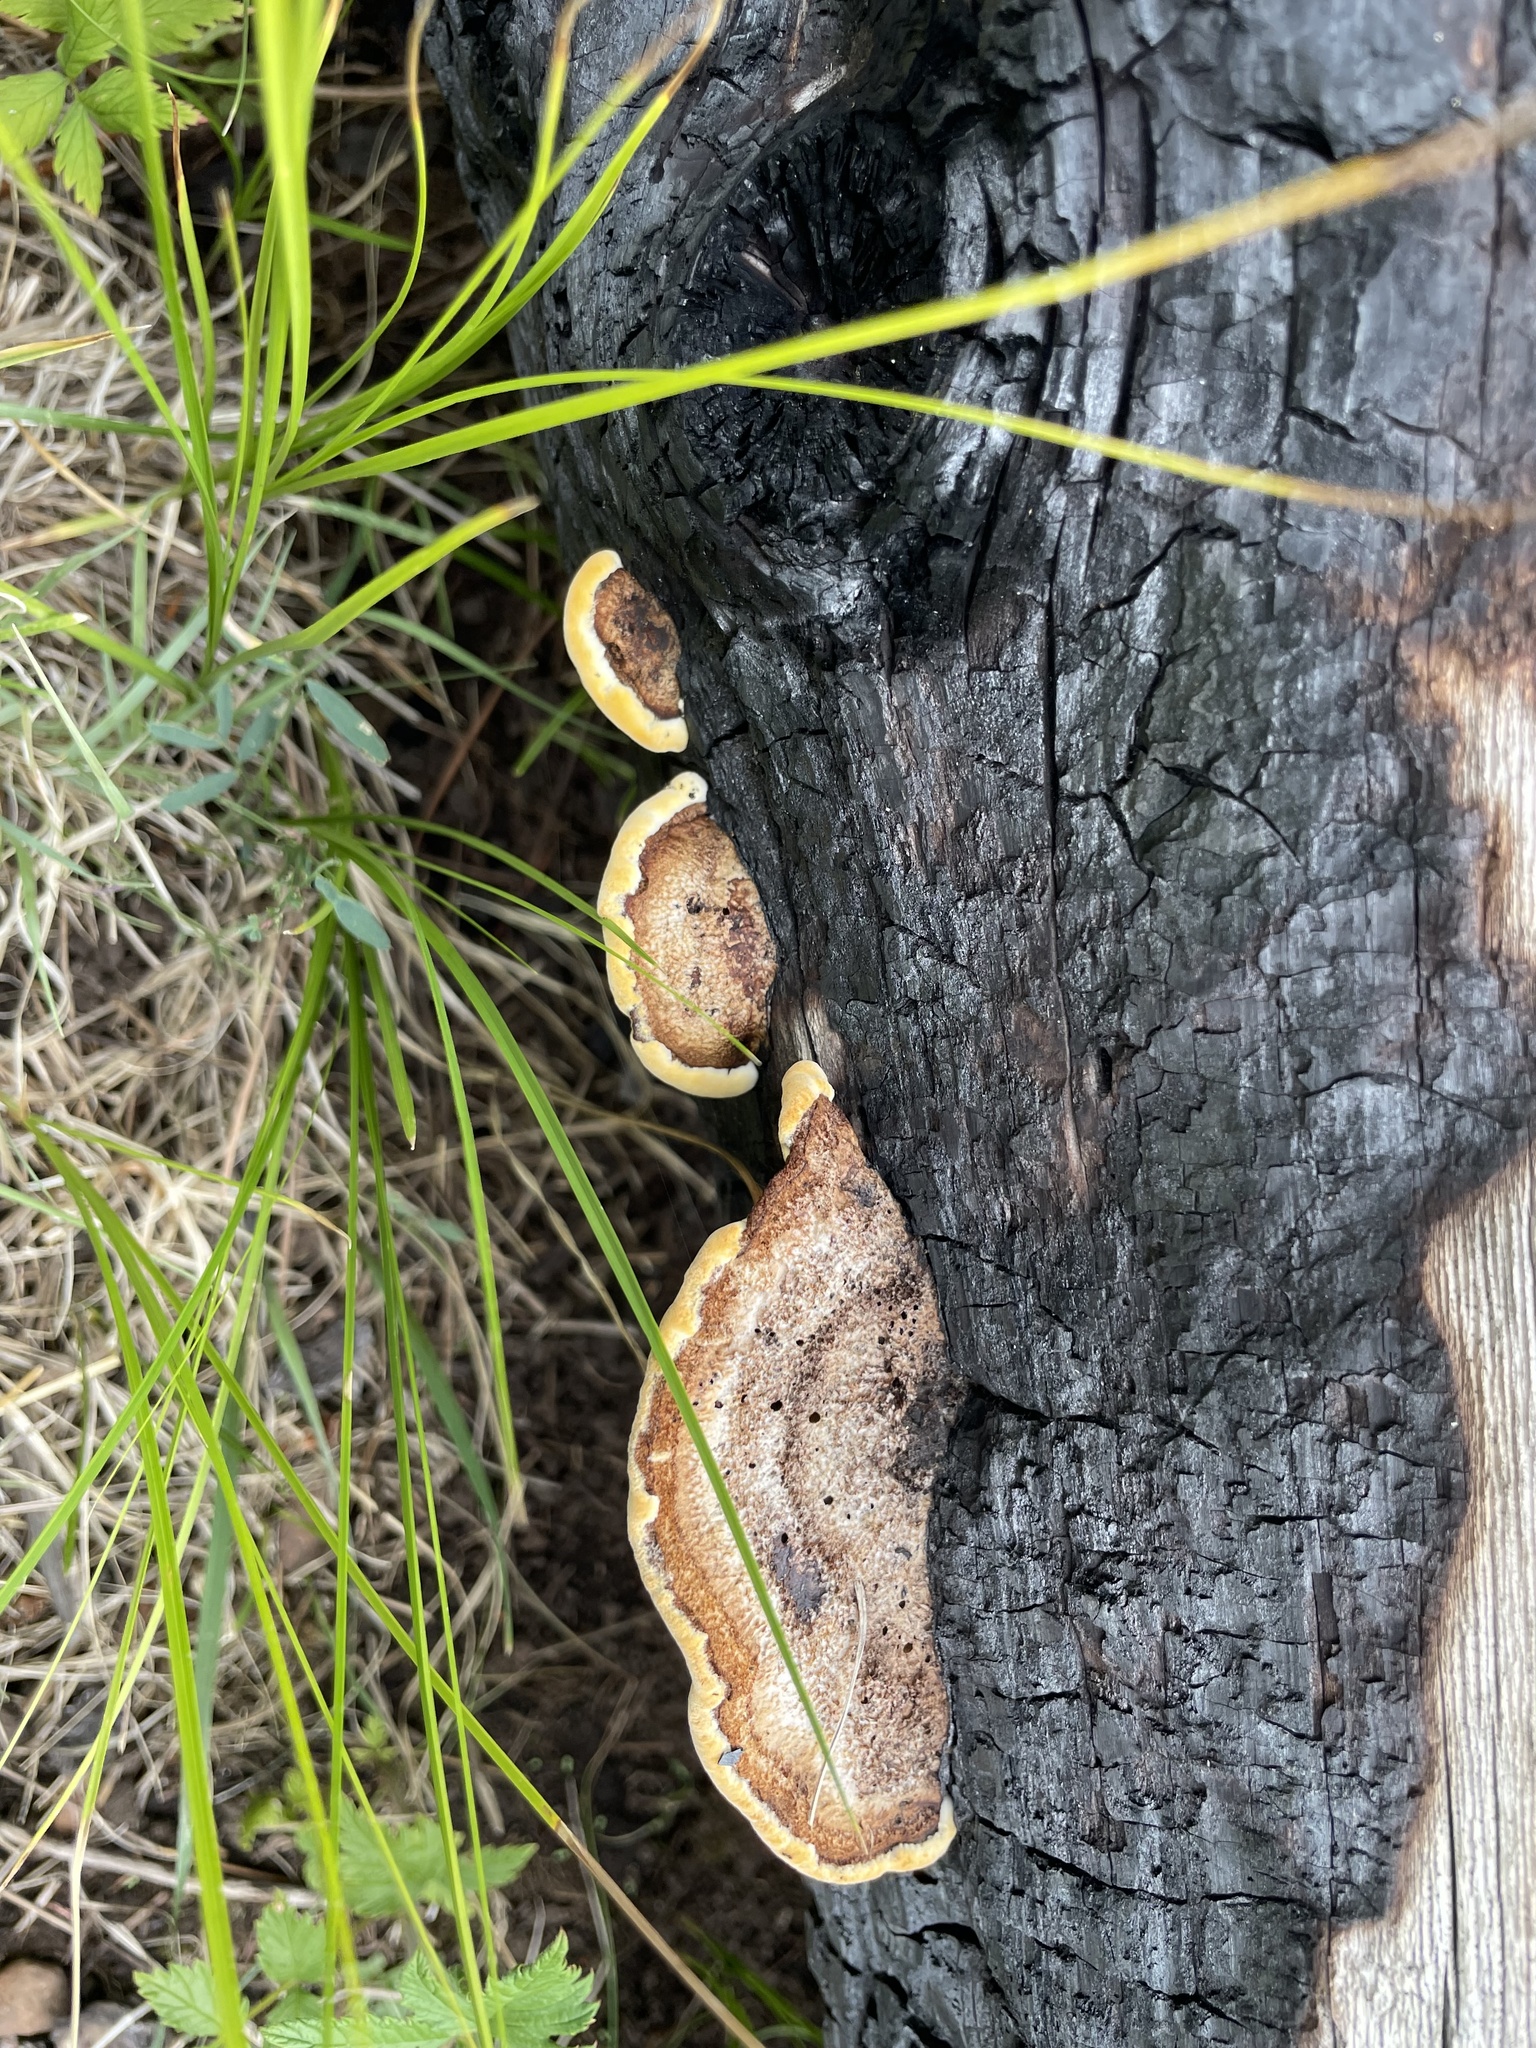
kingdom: Fungi
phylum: Basidiomycota
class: Agaricomycetes
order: Gloeophyllales
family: Gloeophyllaceae
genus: Gloeophyllum
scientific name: Gloeophyllum sepiarium
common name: Conifer mazegill
